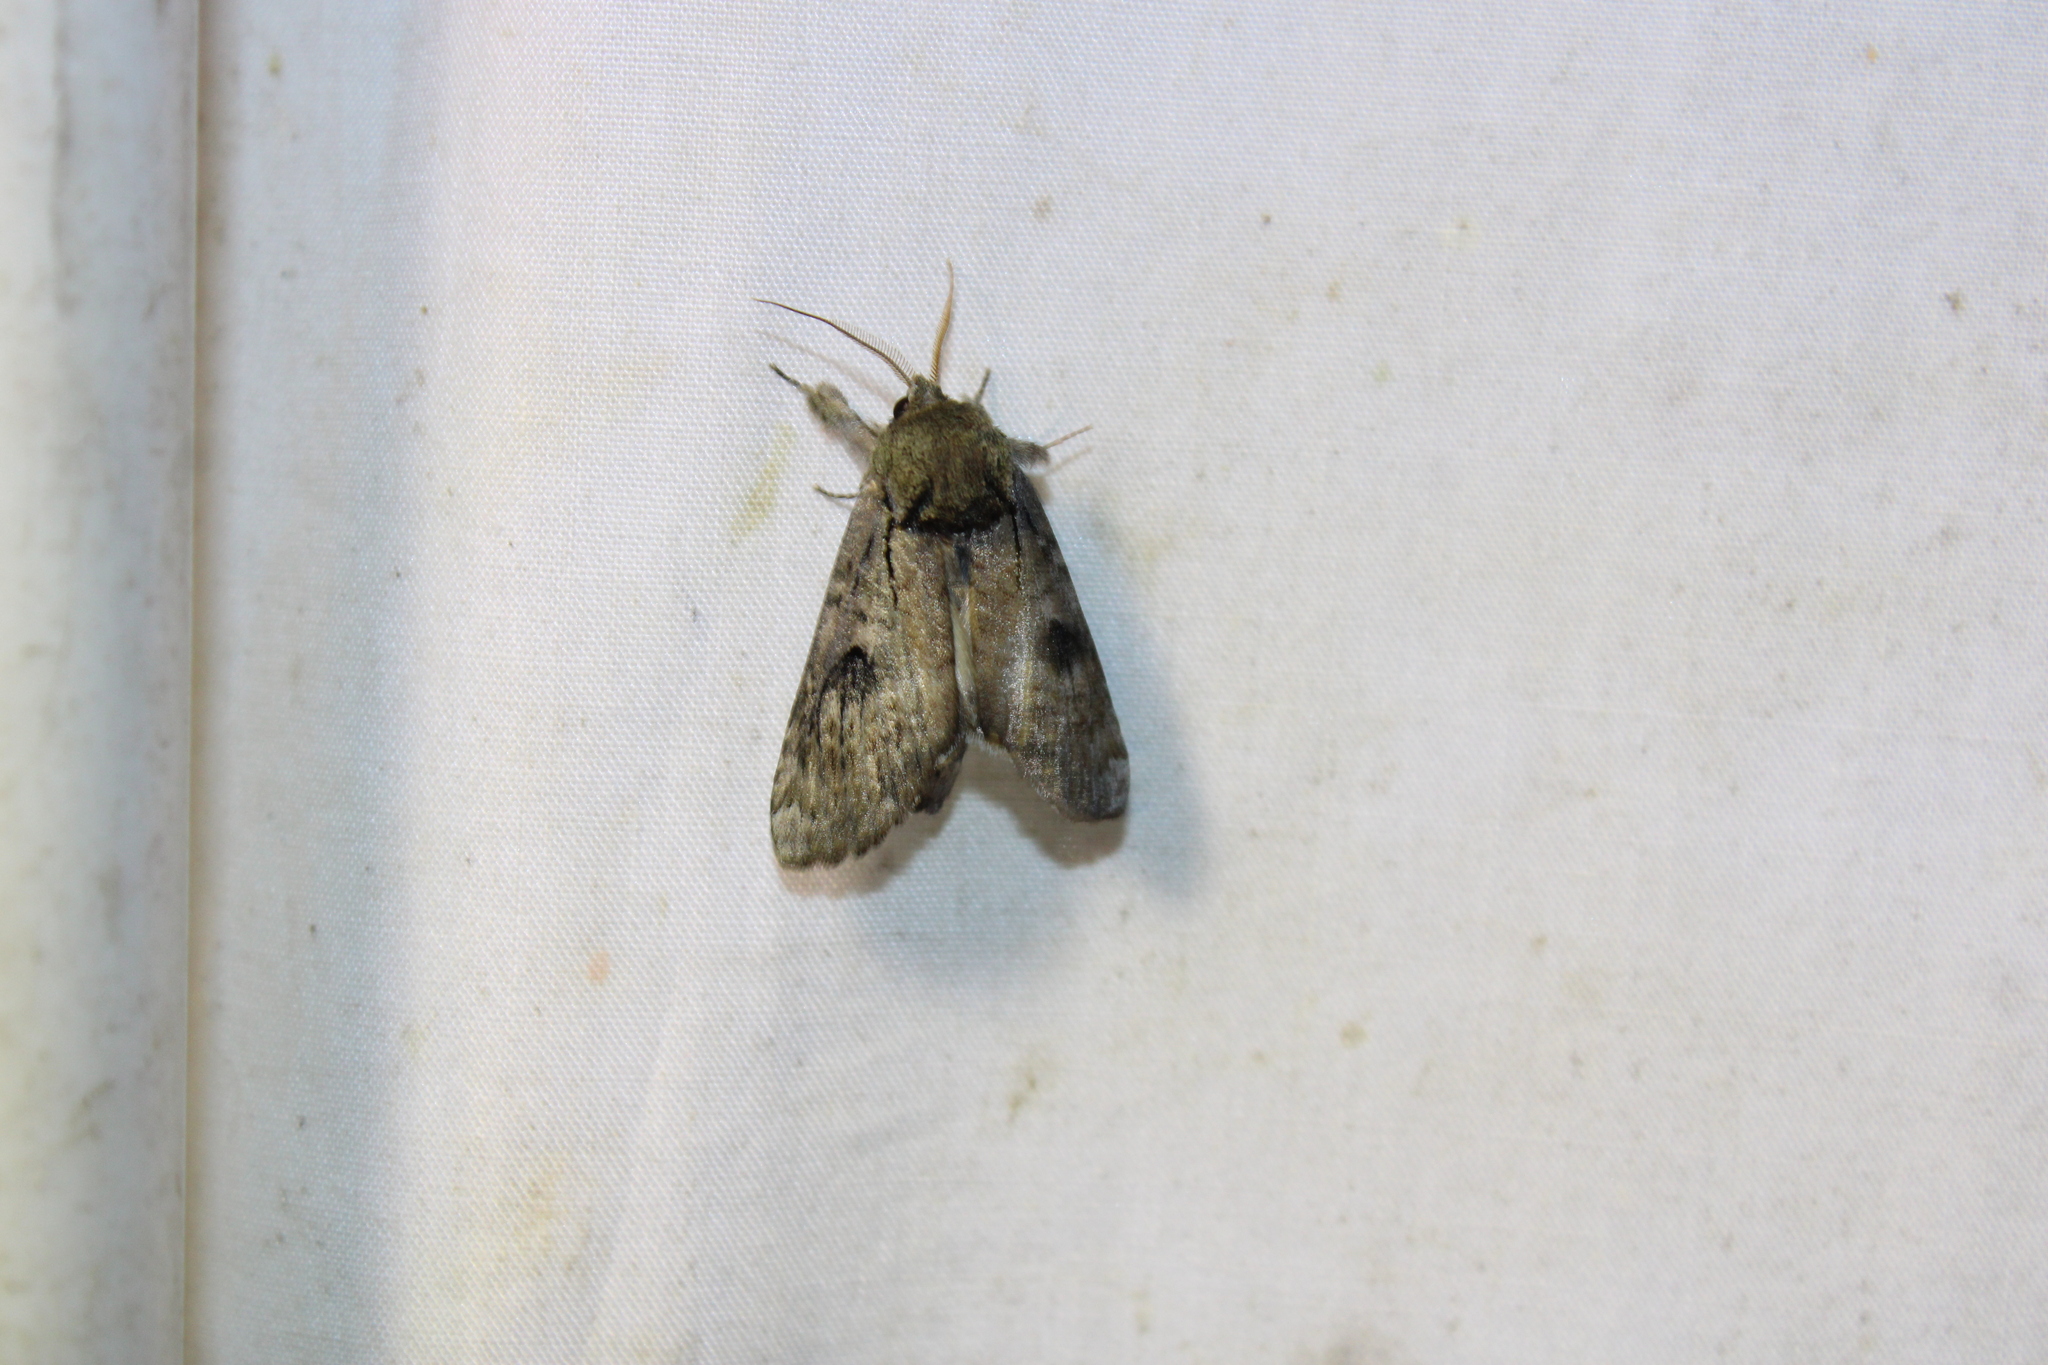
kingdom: Animalia
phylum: Arthropoda
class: Insecta
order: Lepidoptera
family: Notodontidae
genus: Schizura
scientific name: Schizura
